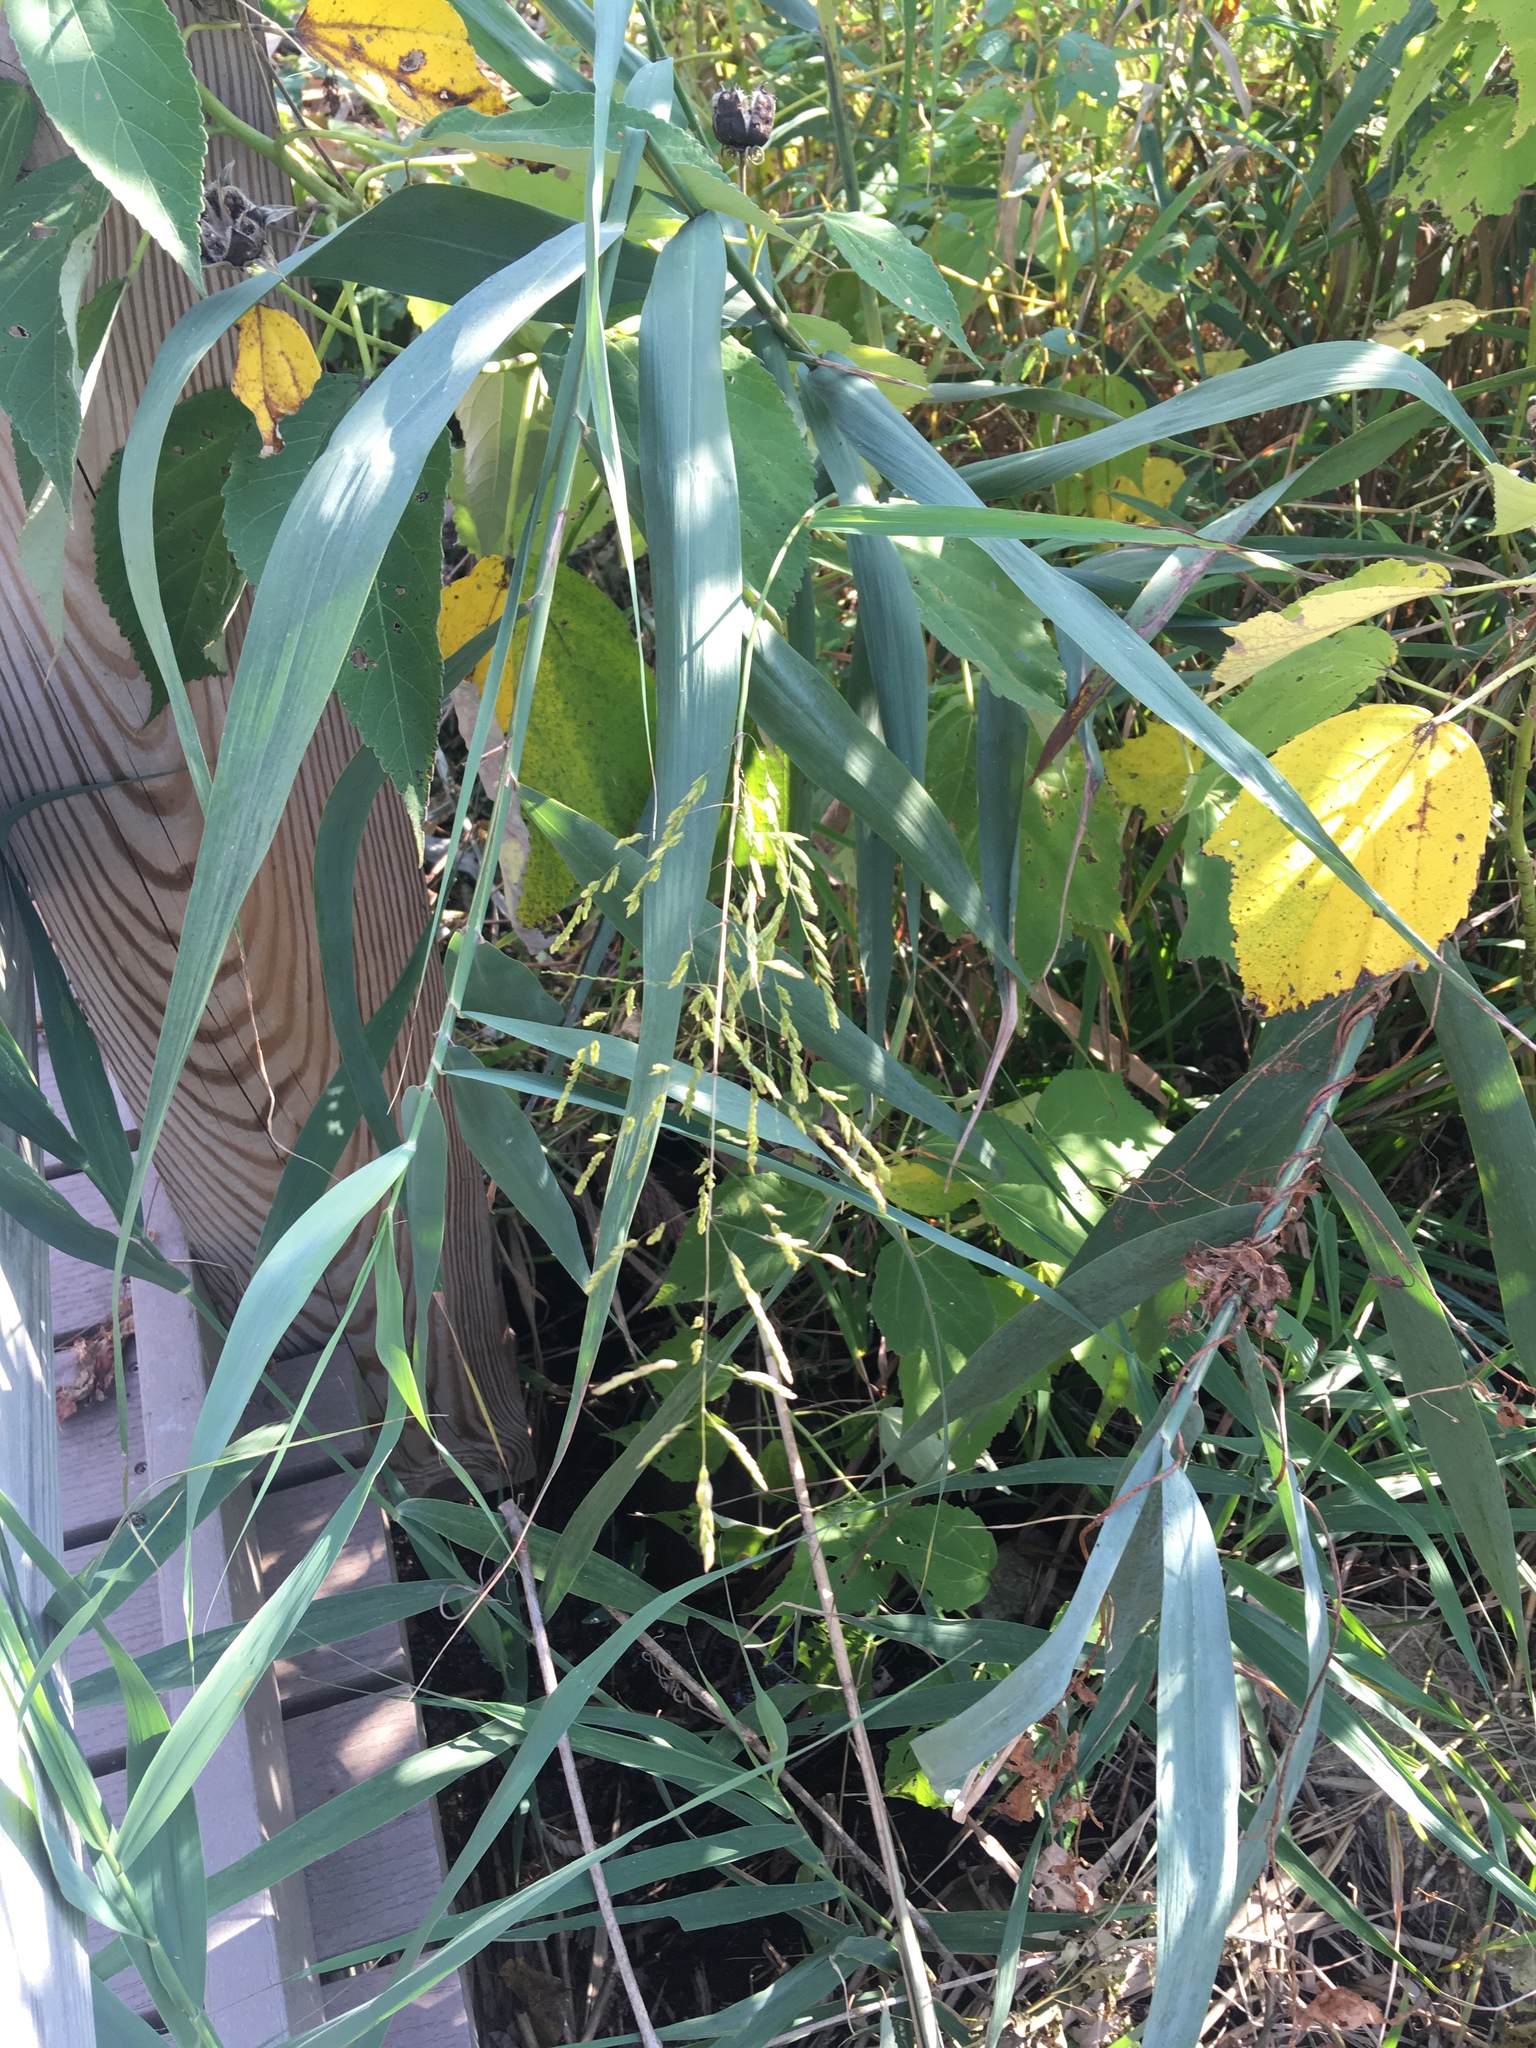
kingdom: Plantae
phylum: Tracheophyta
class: Liliopsida
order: Poales
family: Poaceae
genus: Leersia
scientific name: Leersia oryzoides
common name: Cut-grass
